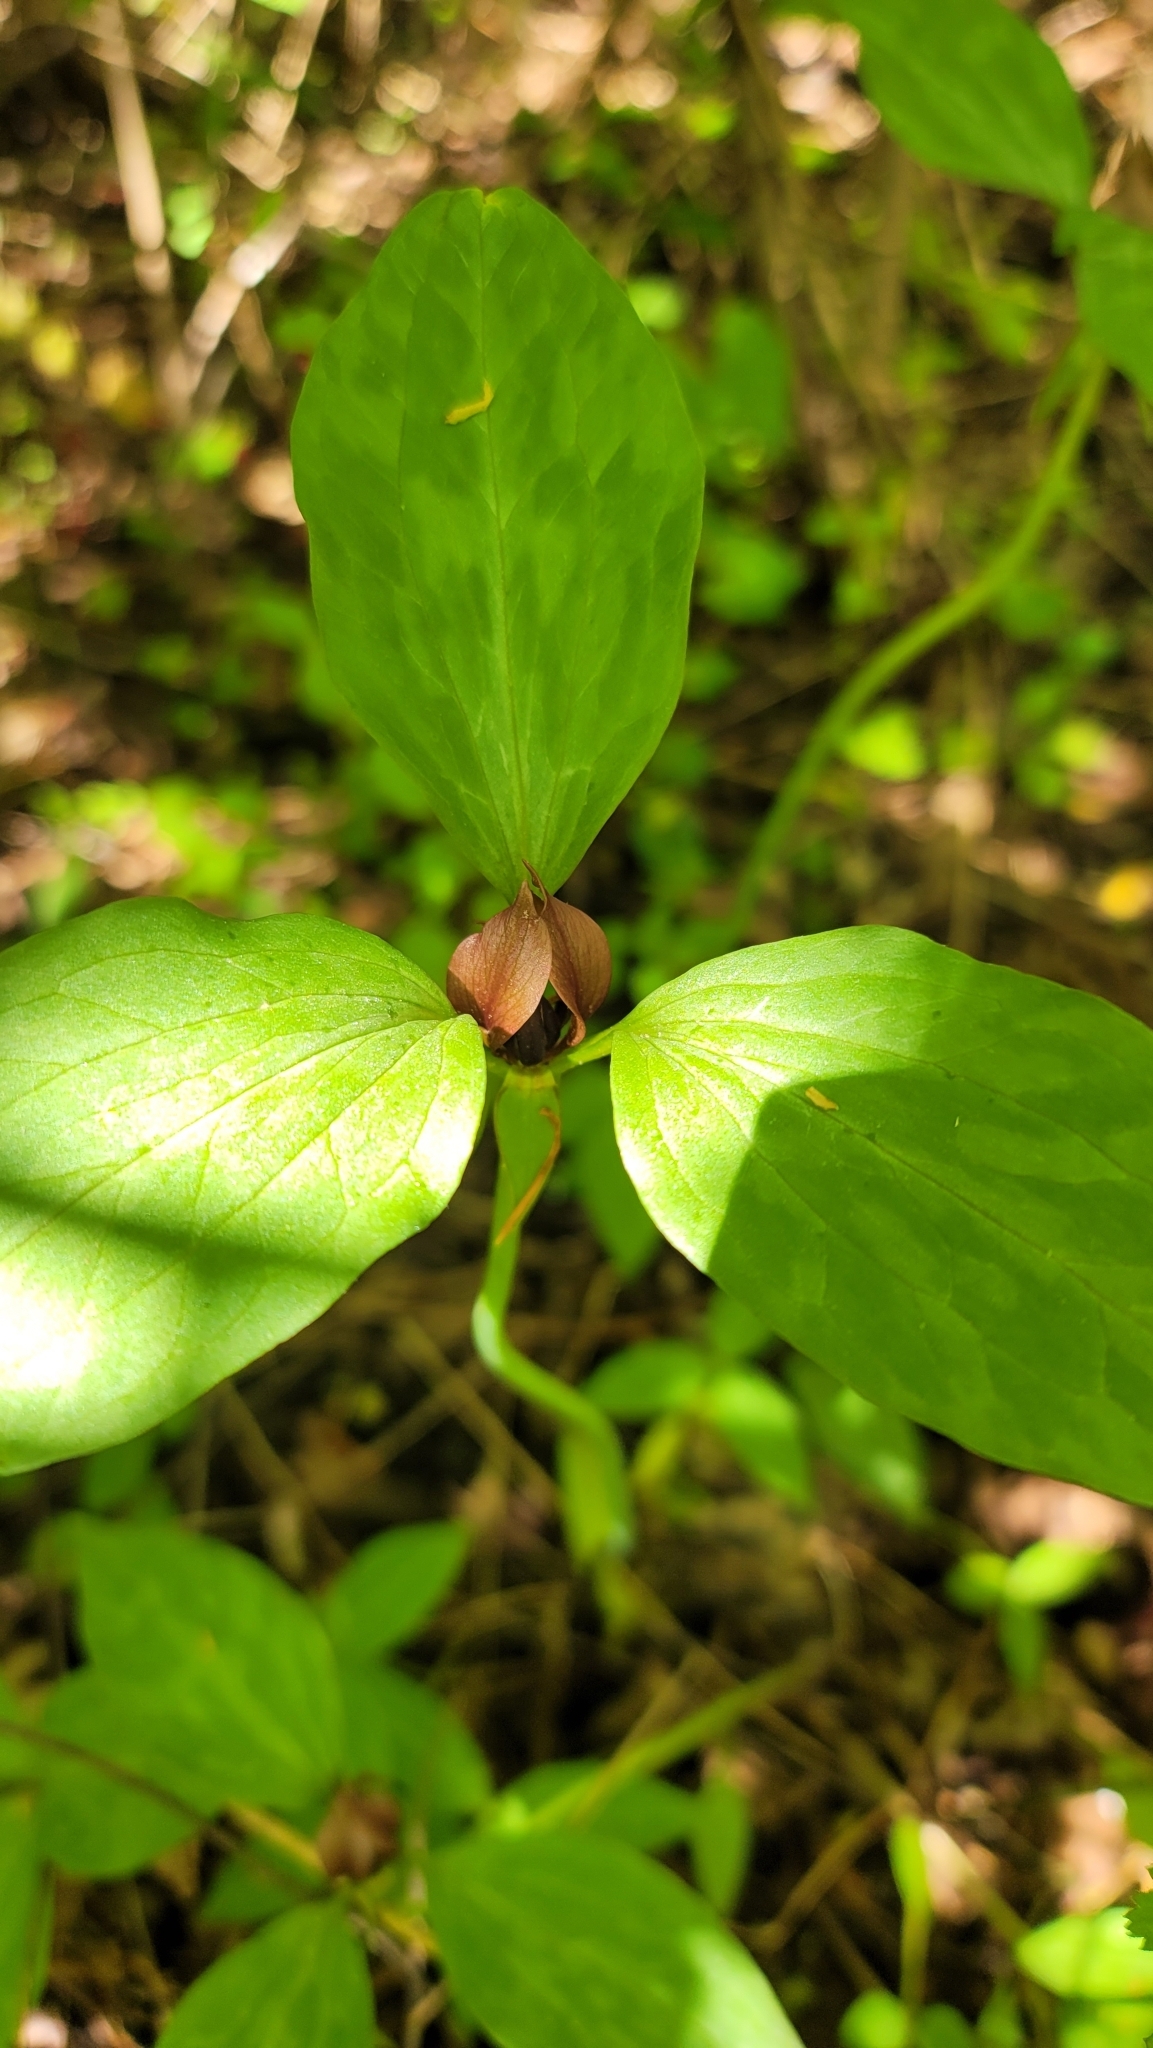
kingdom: Plantae
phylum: Tracheophyta
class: Liliopsida
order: Liliales
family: Melanthiaceae
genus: Trillium
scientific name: Trillium recurvatum
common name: Bloody butcher
